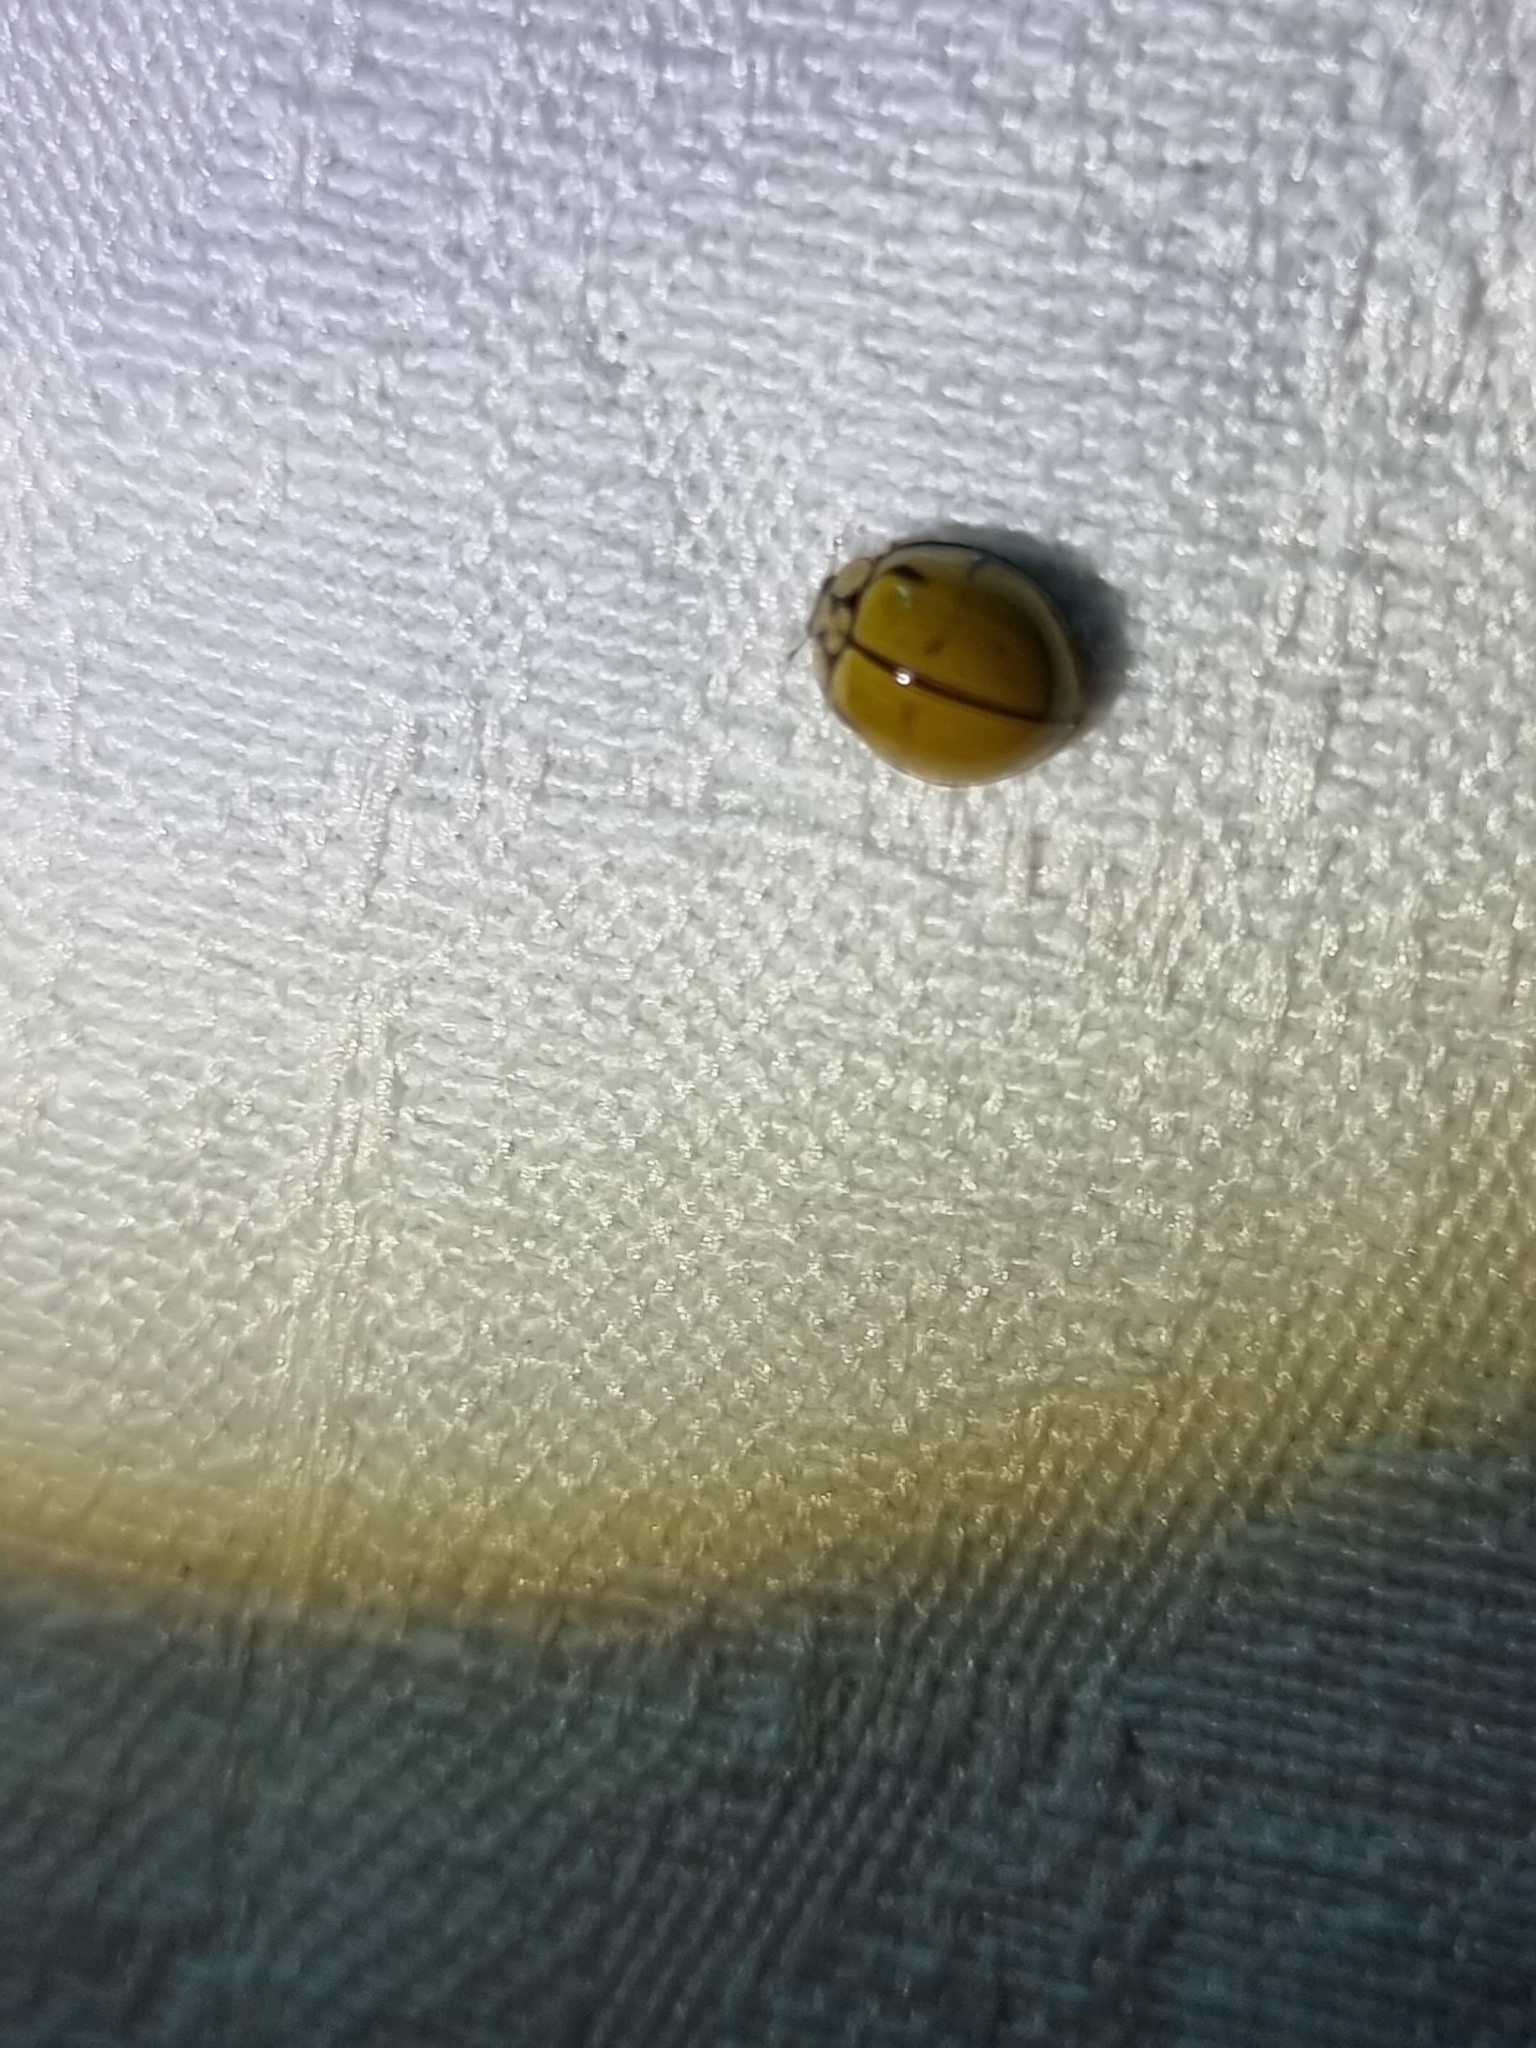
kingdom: Animalia
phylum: Arthropoda
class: Insecta
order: Coleoptera
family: Coccinellidae
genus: Harmonia
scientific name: Harmonia
